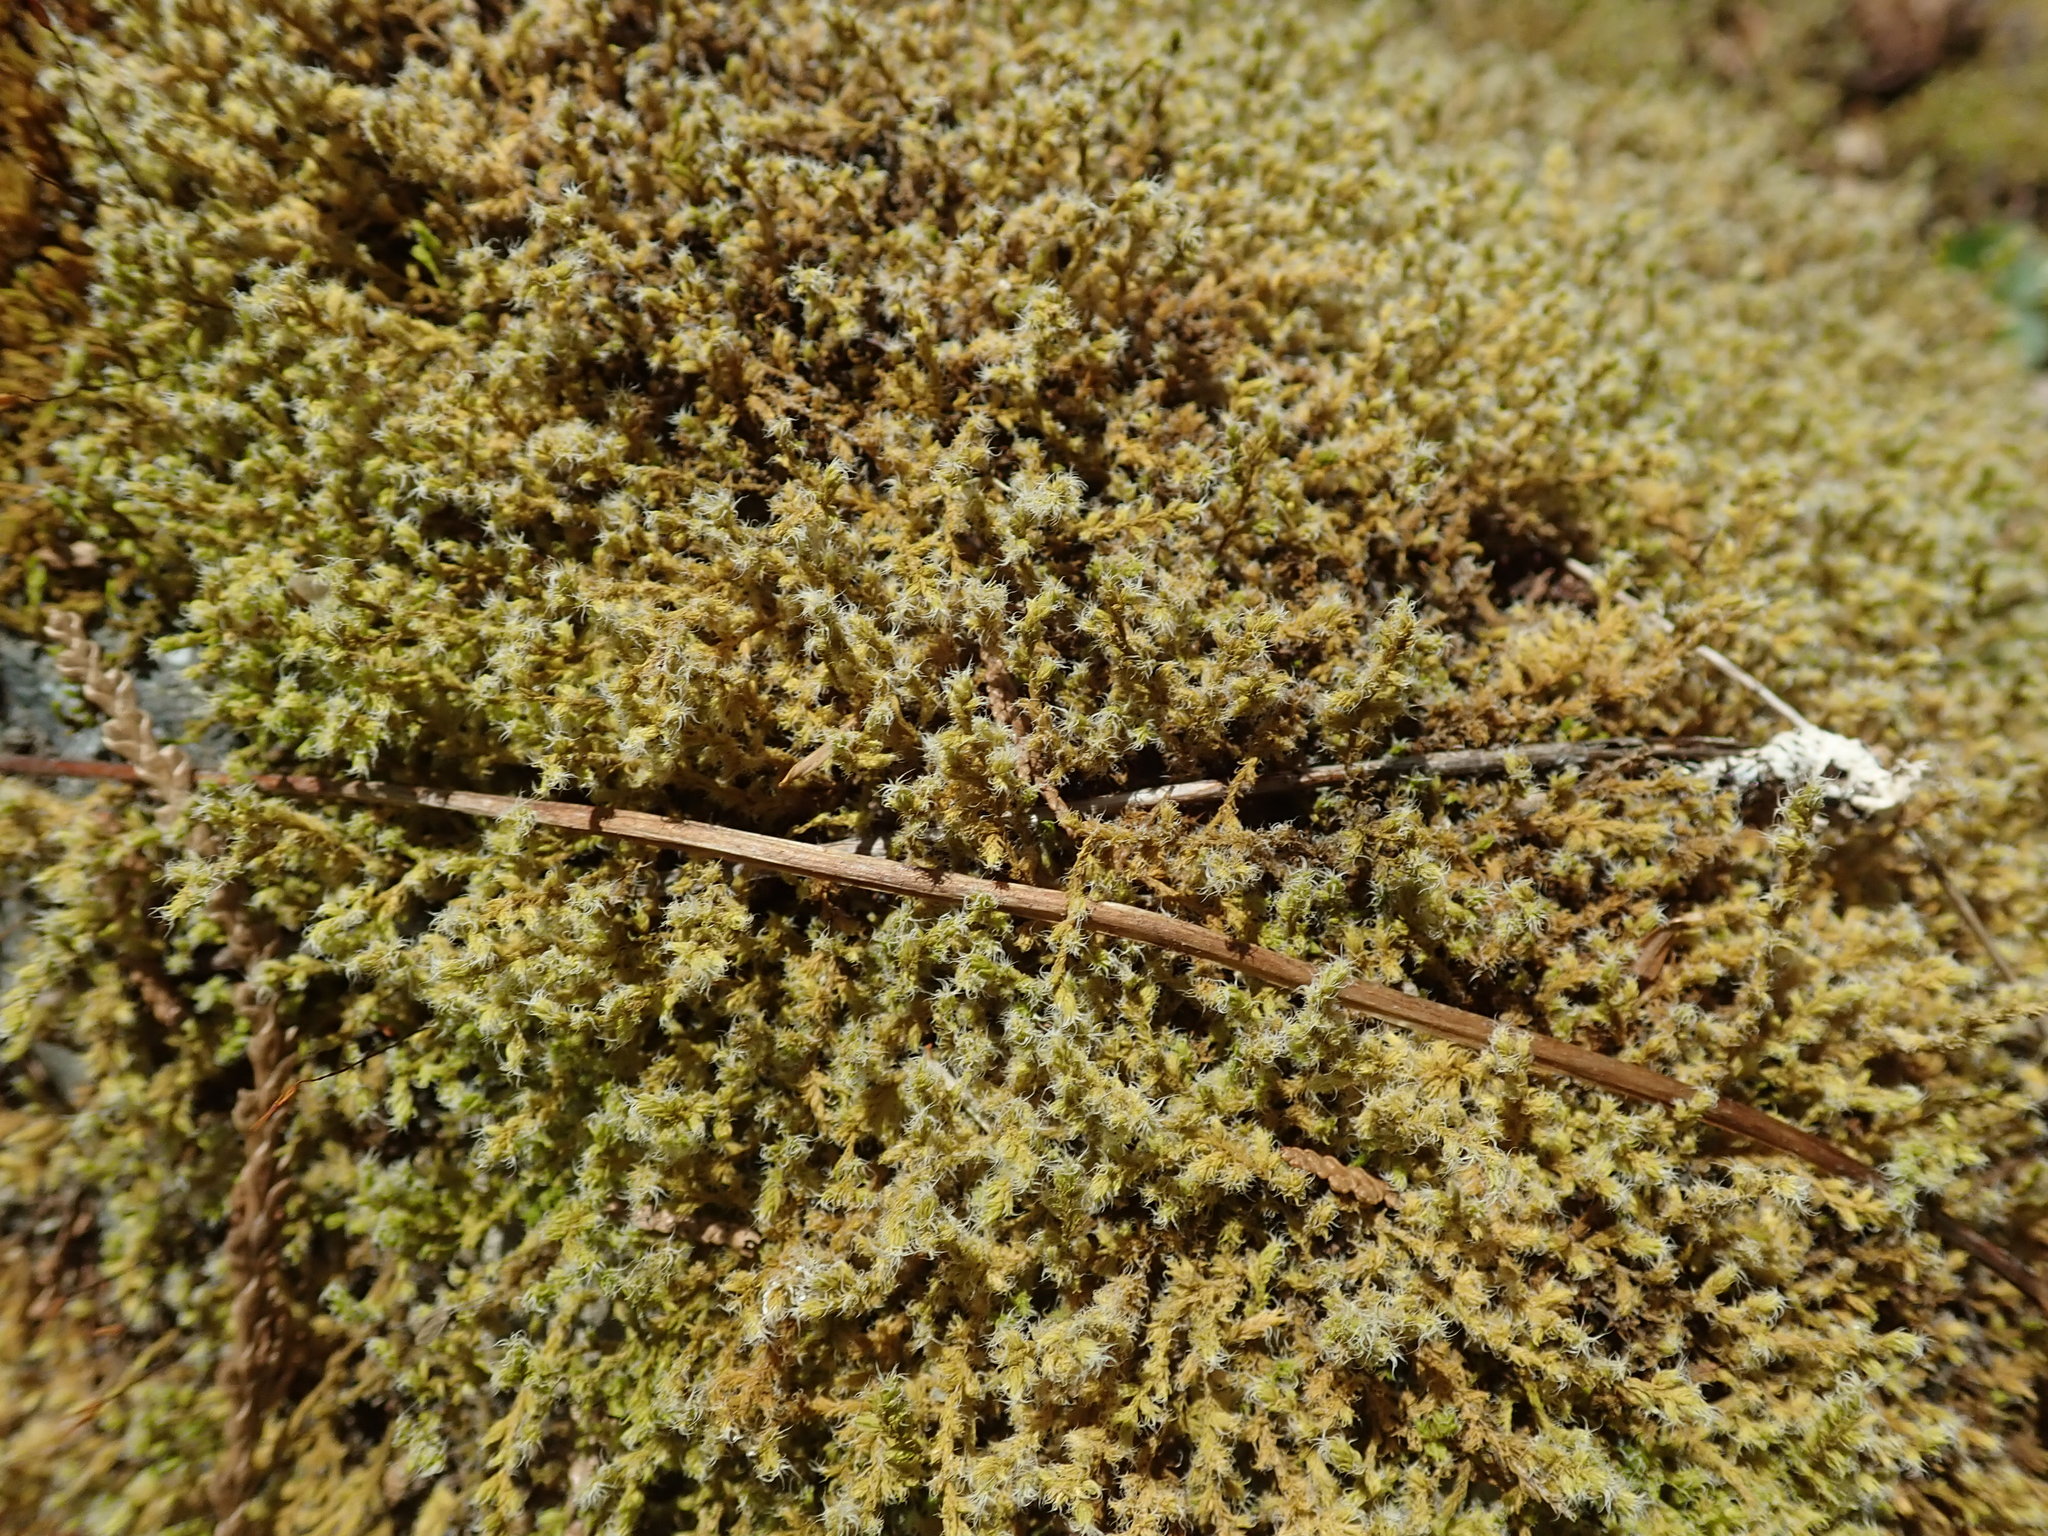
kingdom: Plantae
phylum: Bryophyta
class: Bryopsida
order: Grimmiales
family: Grimmiaceae
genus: Niphotrichum
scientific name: Niphotrichum elongatum
